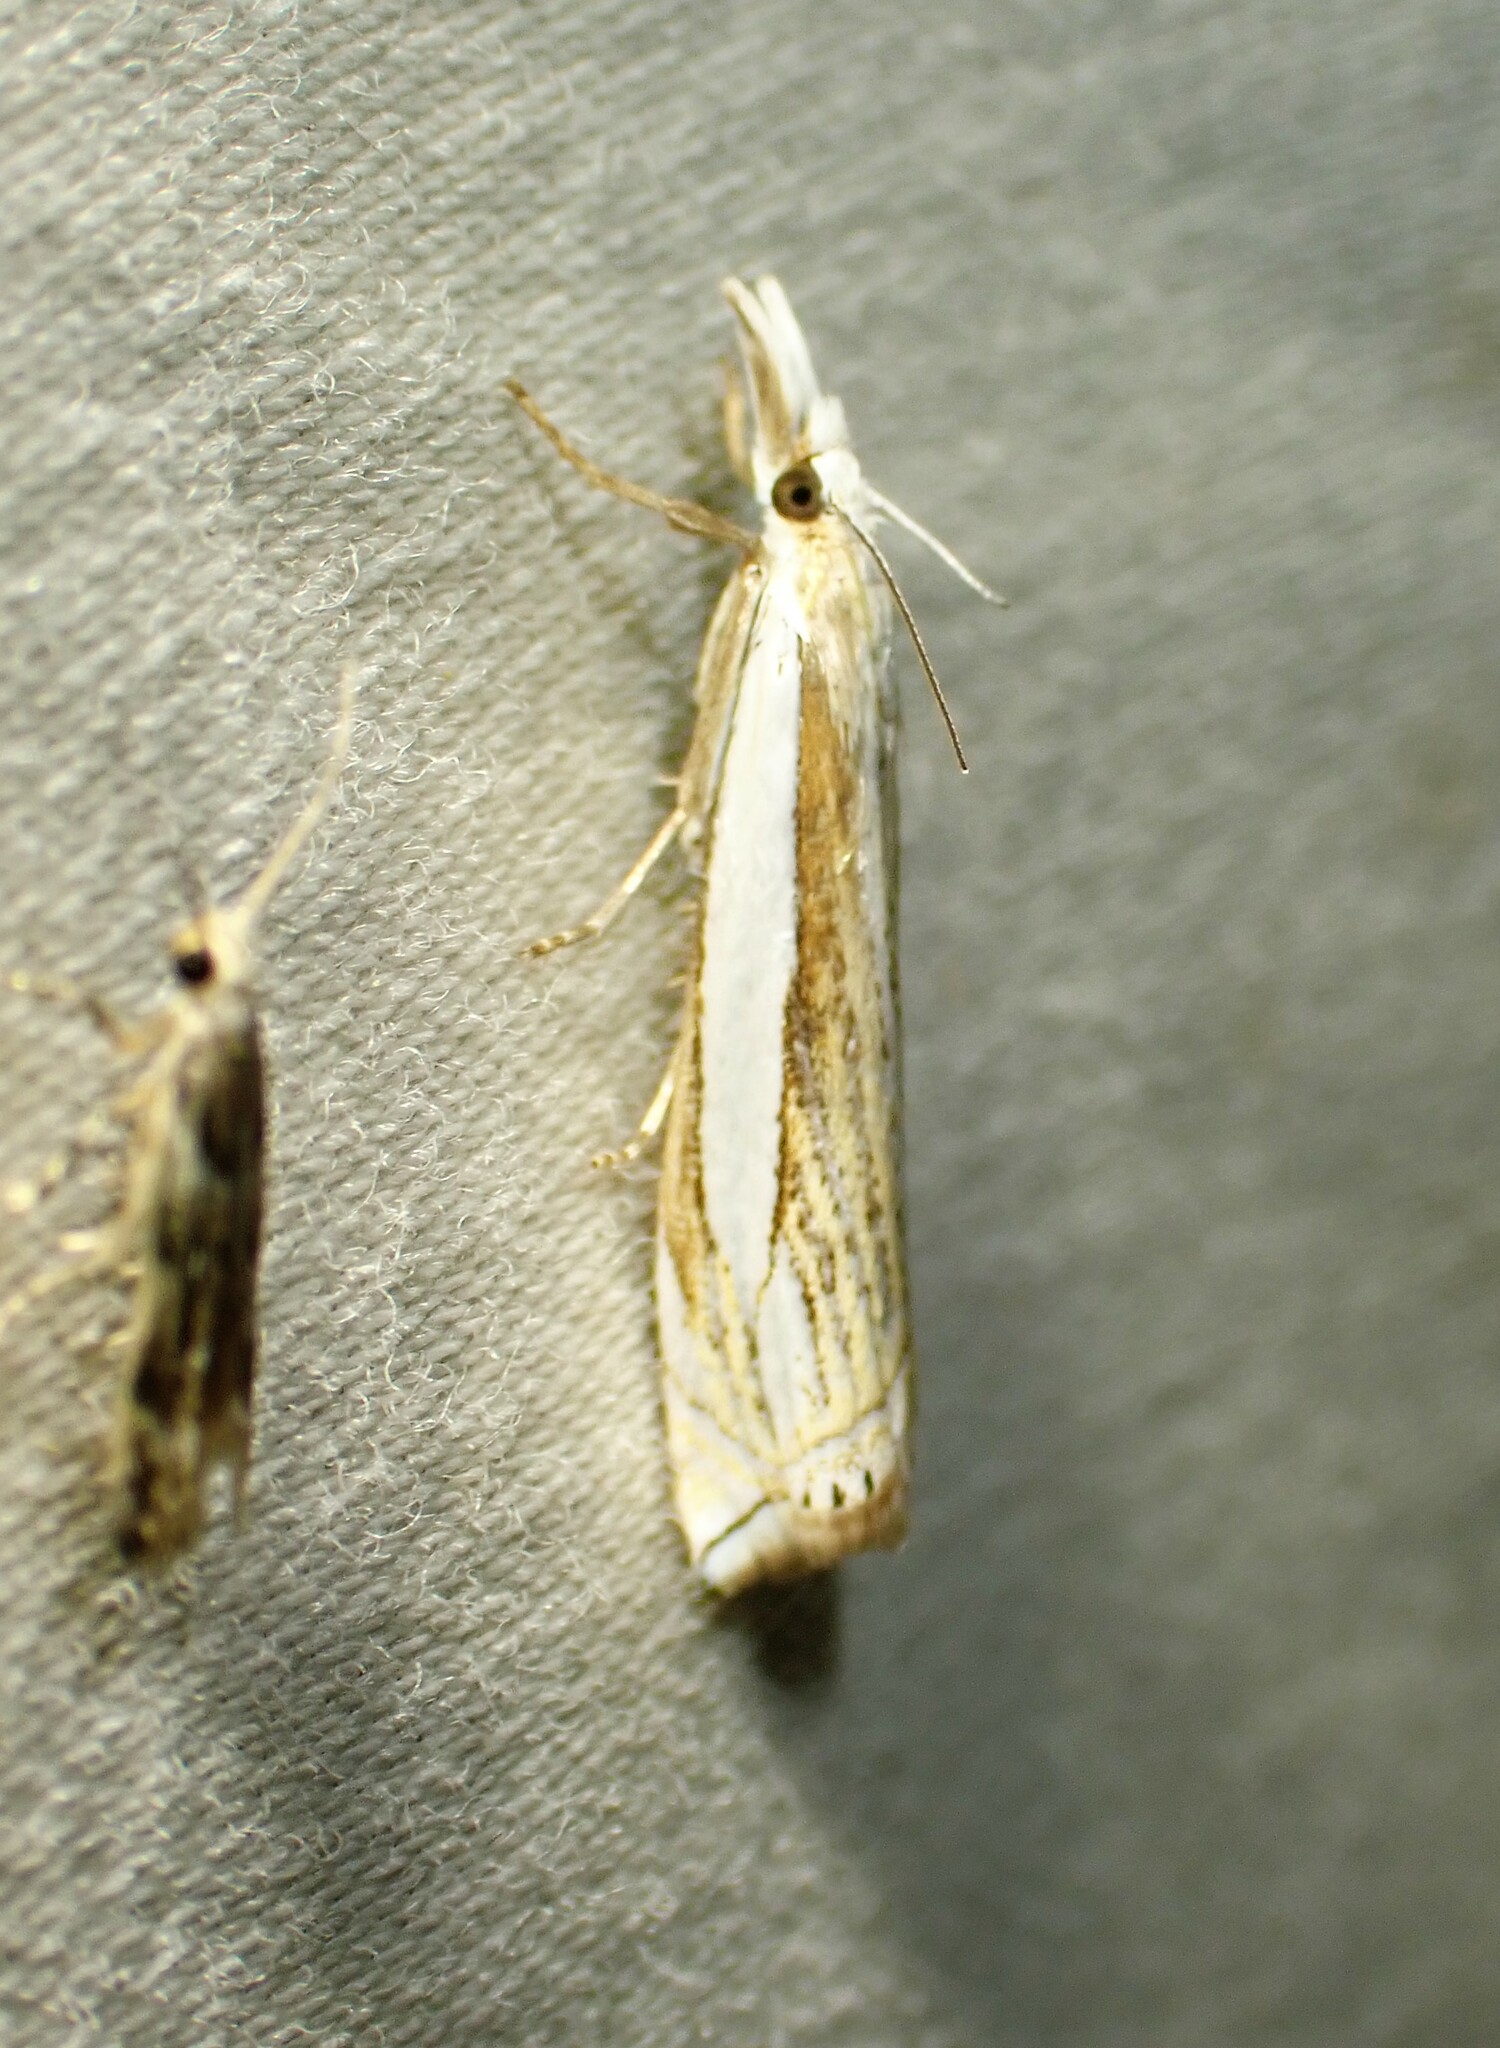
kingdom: Animalia
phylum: Arthropoda
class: Insecta
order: Lepidoptera
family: Crambidae
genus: Crambus
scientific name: Crambus pascuella
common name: Inlaid grass-veneer
